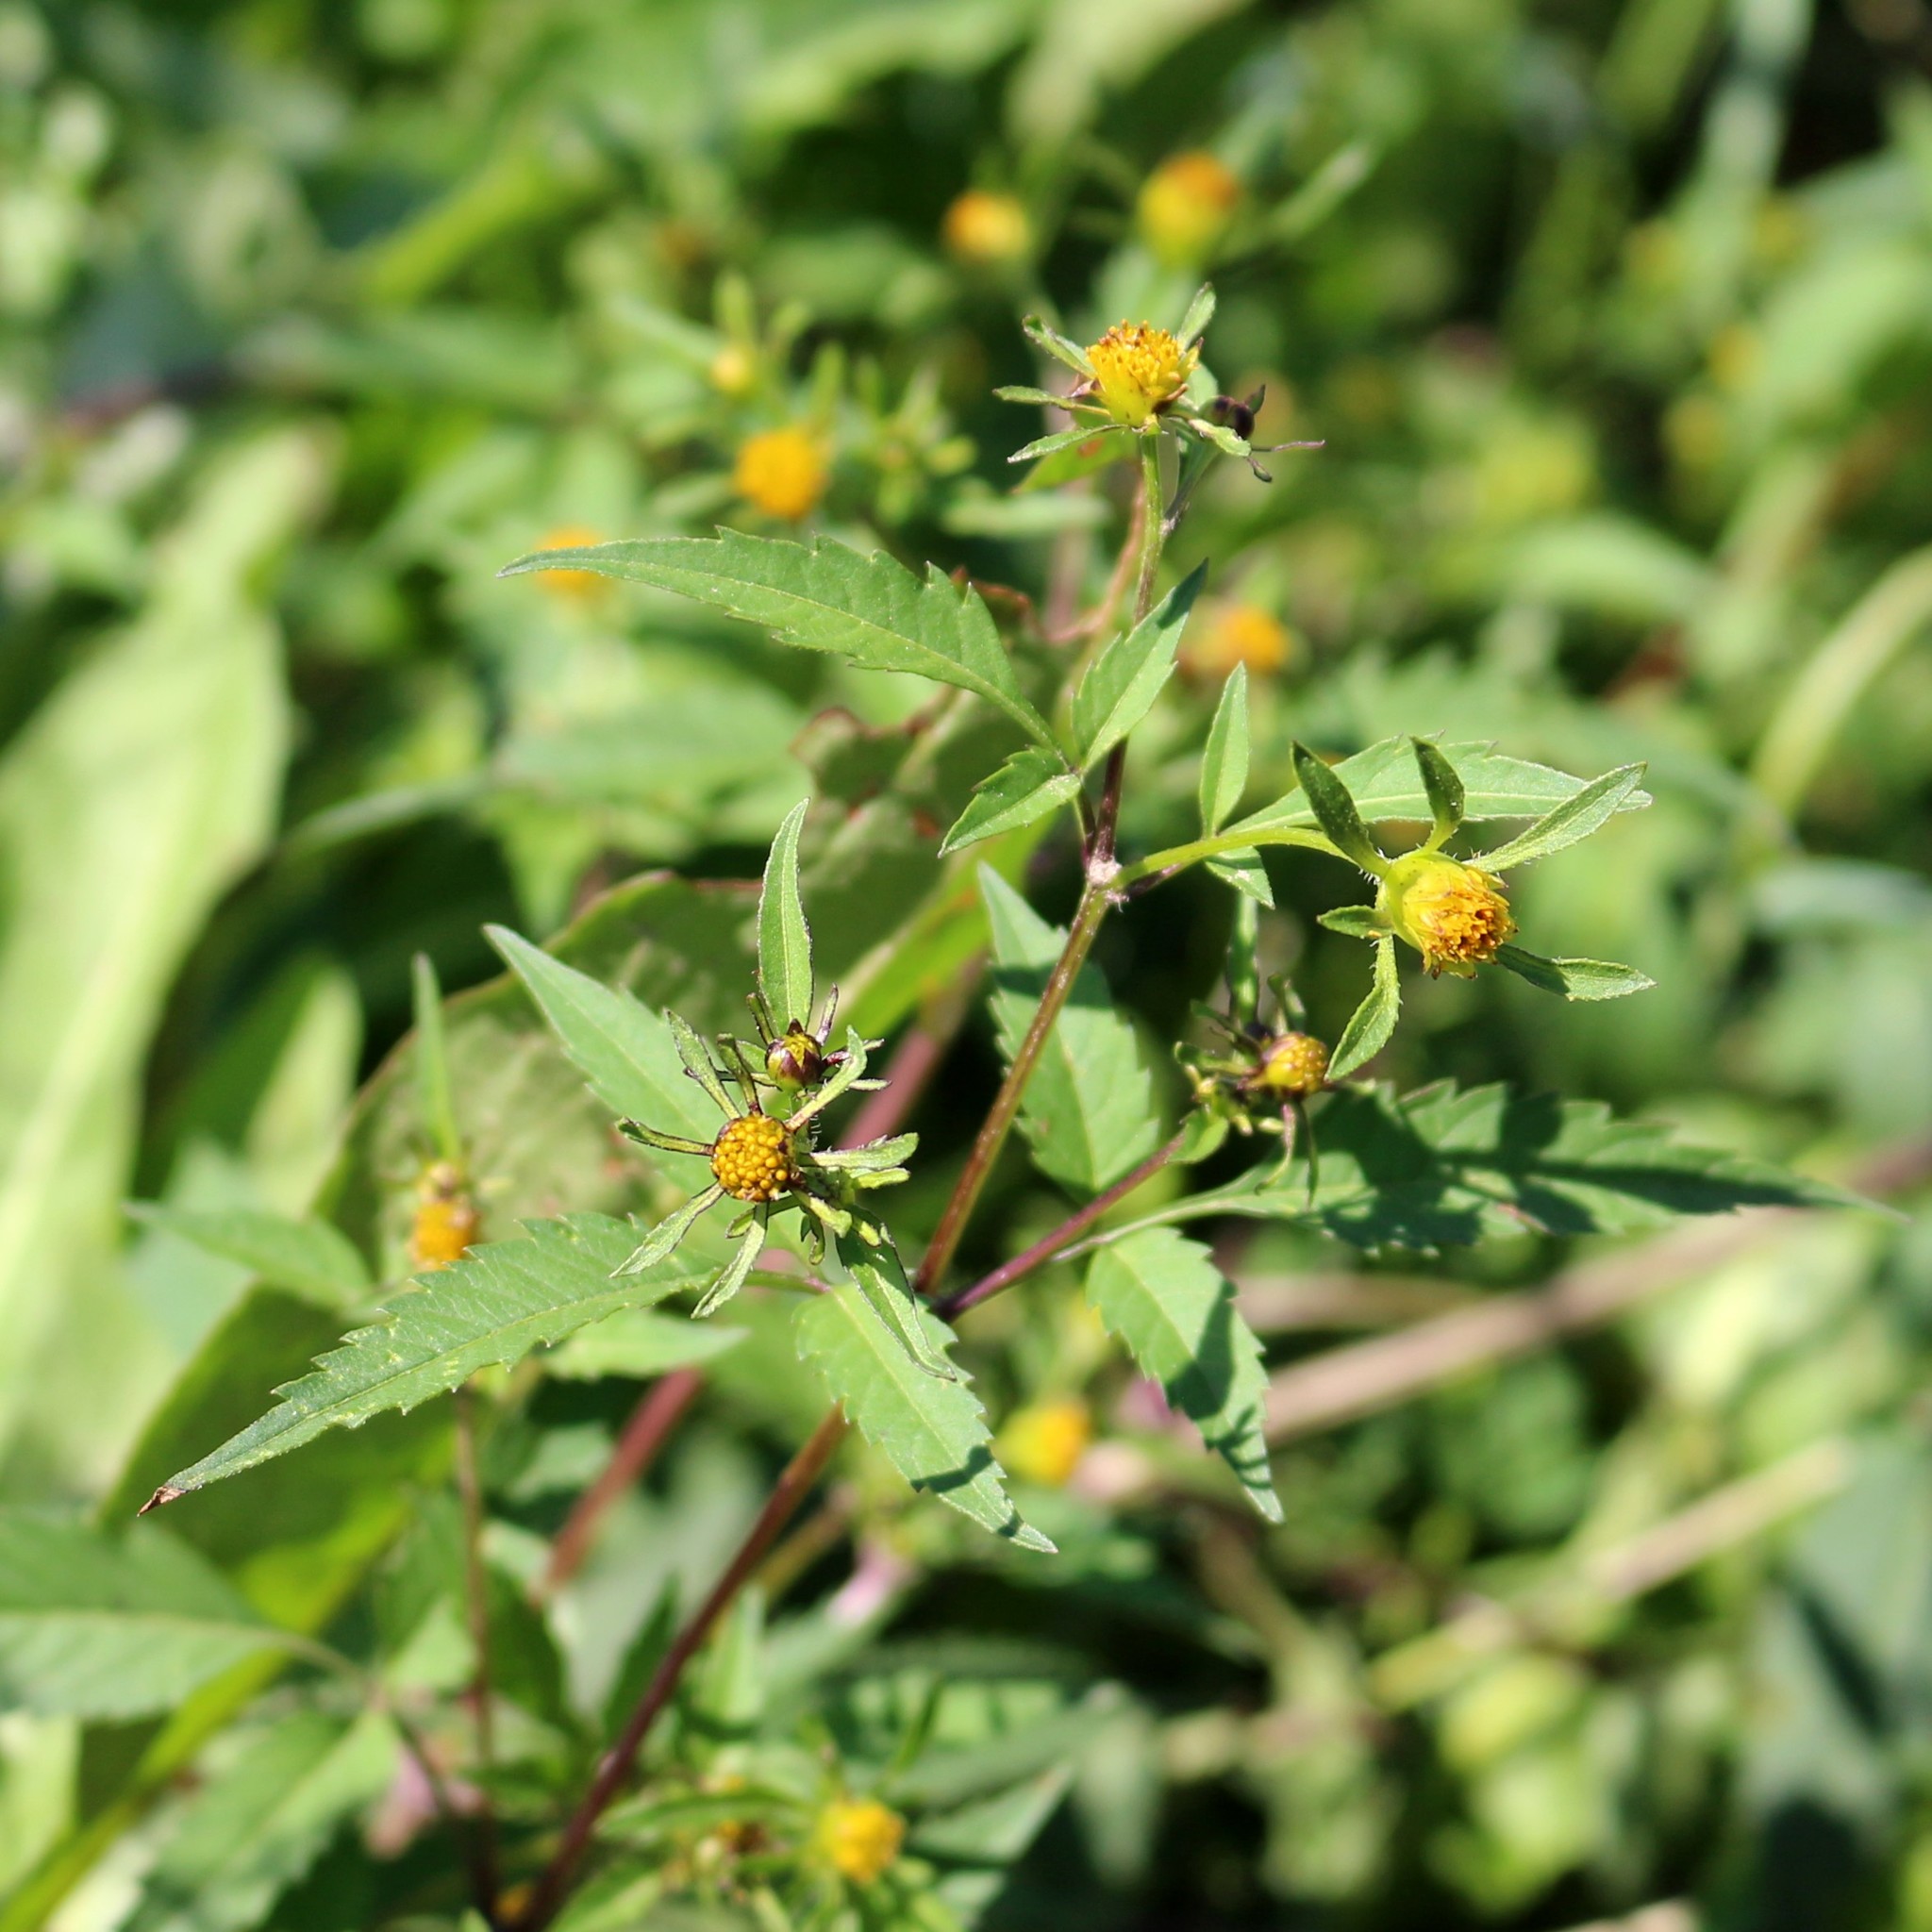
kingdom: Plantae
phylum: Tracheophyta
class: Magnoliopsida
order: Asterales
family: Asteraceae
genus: Bidens
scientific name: Bidens frondosa
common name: Beggarticks
